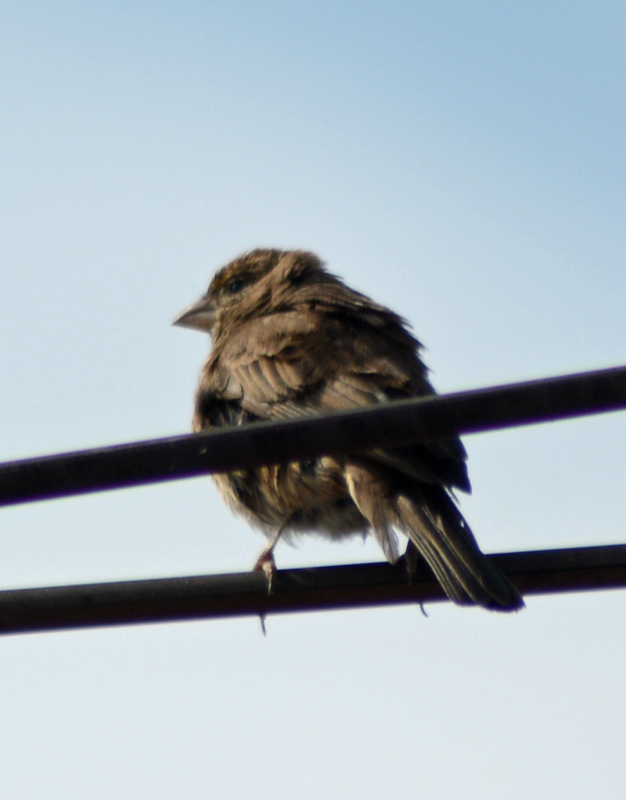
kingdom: Animalia
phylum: Chordata
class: Aves
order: Passeriformes
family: Fringillidae
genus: Haemorhous
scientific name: Haemorhous mexicanus
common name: House finch
